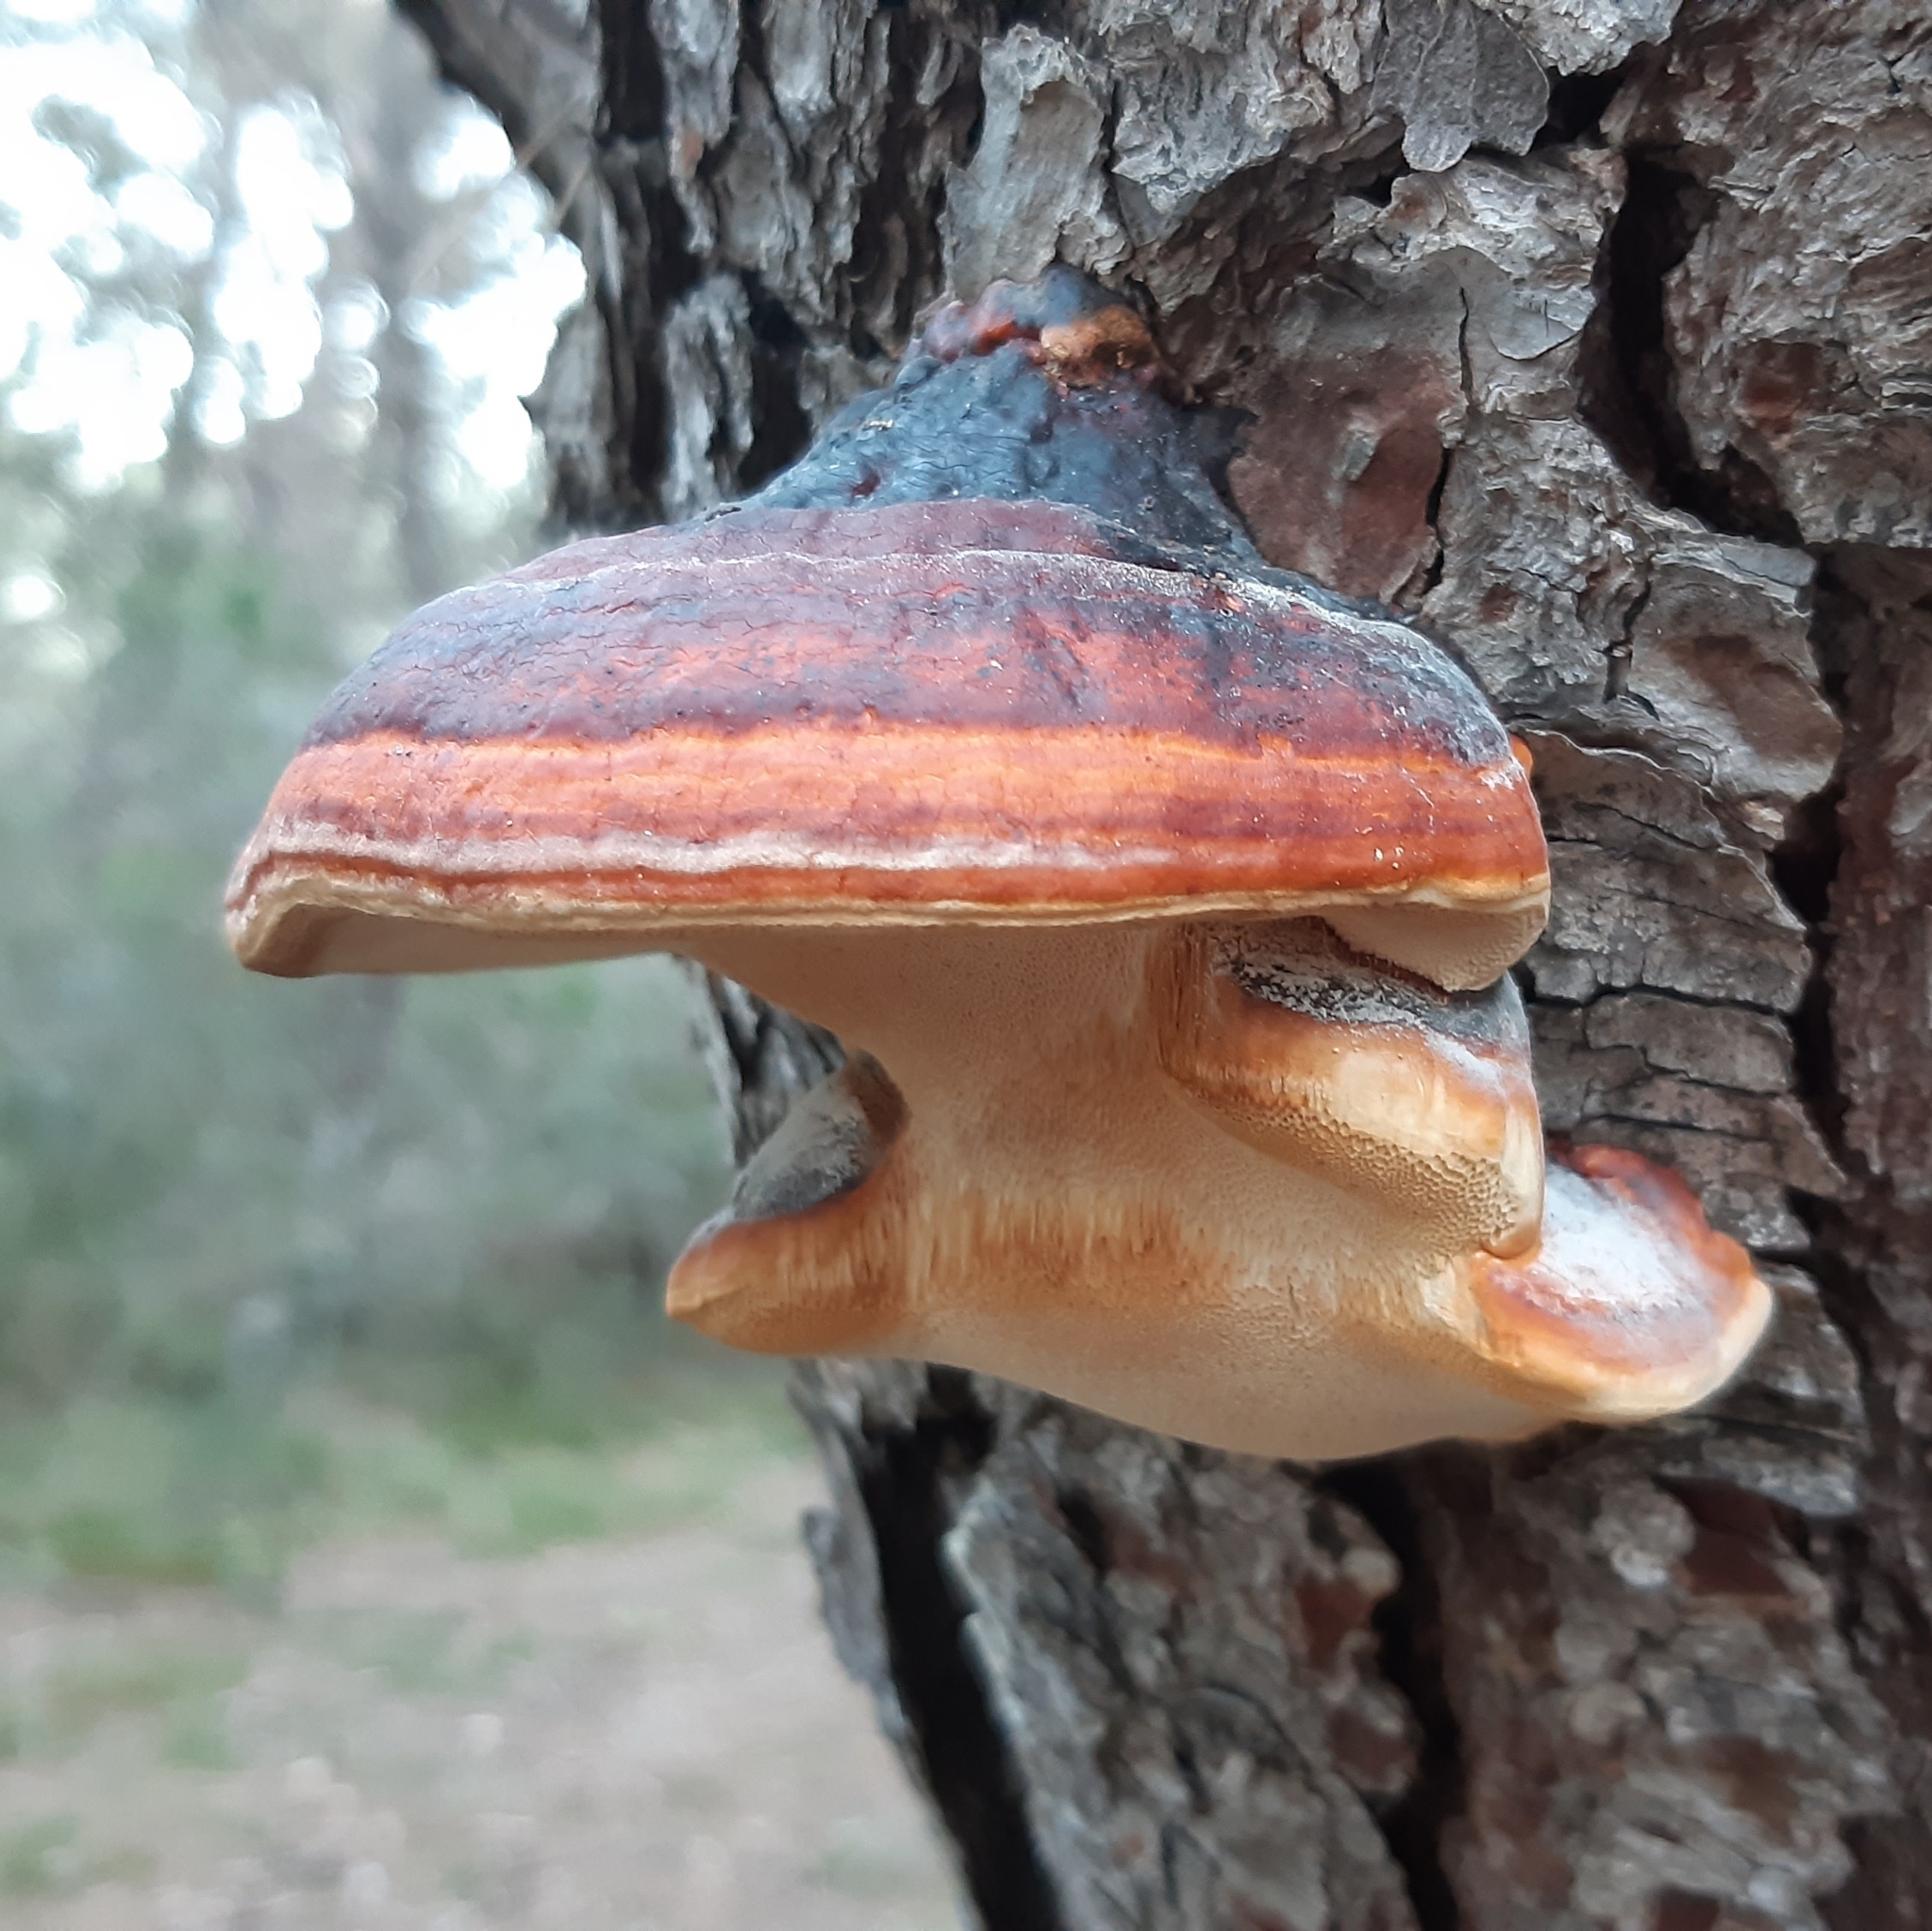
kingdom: Fungi
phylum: Basidiomycota
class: Agaricomycetes
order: Polyporales
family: Fomitopsidaceae
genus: Fomitopsis
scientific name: Fomitopsis pinicola
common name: Red-belted bracket
